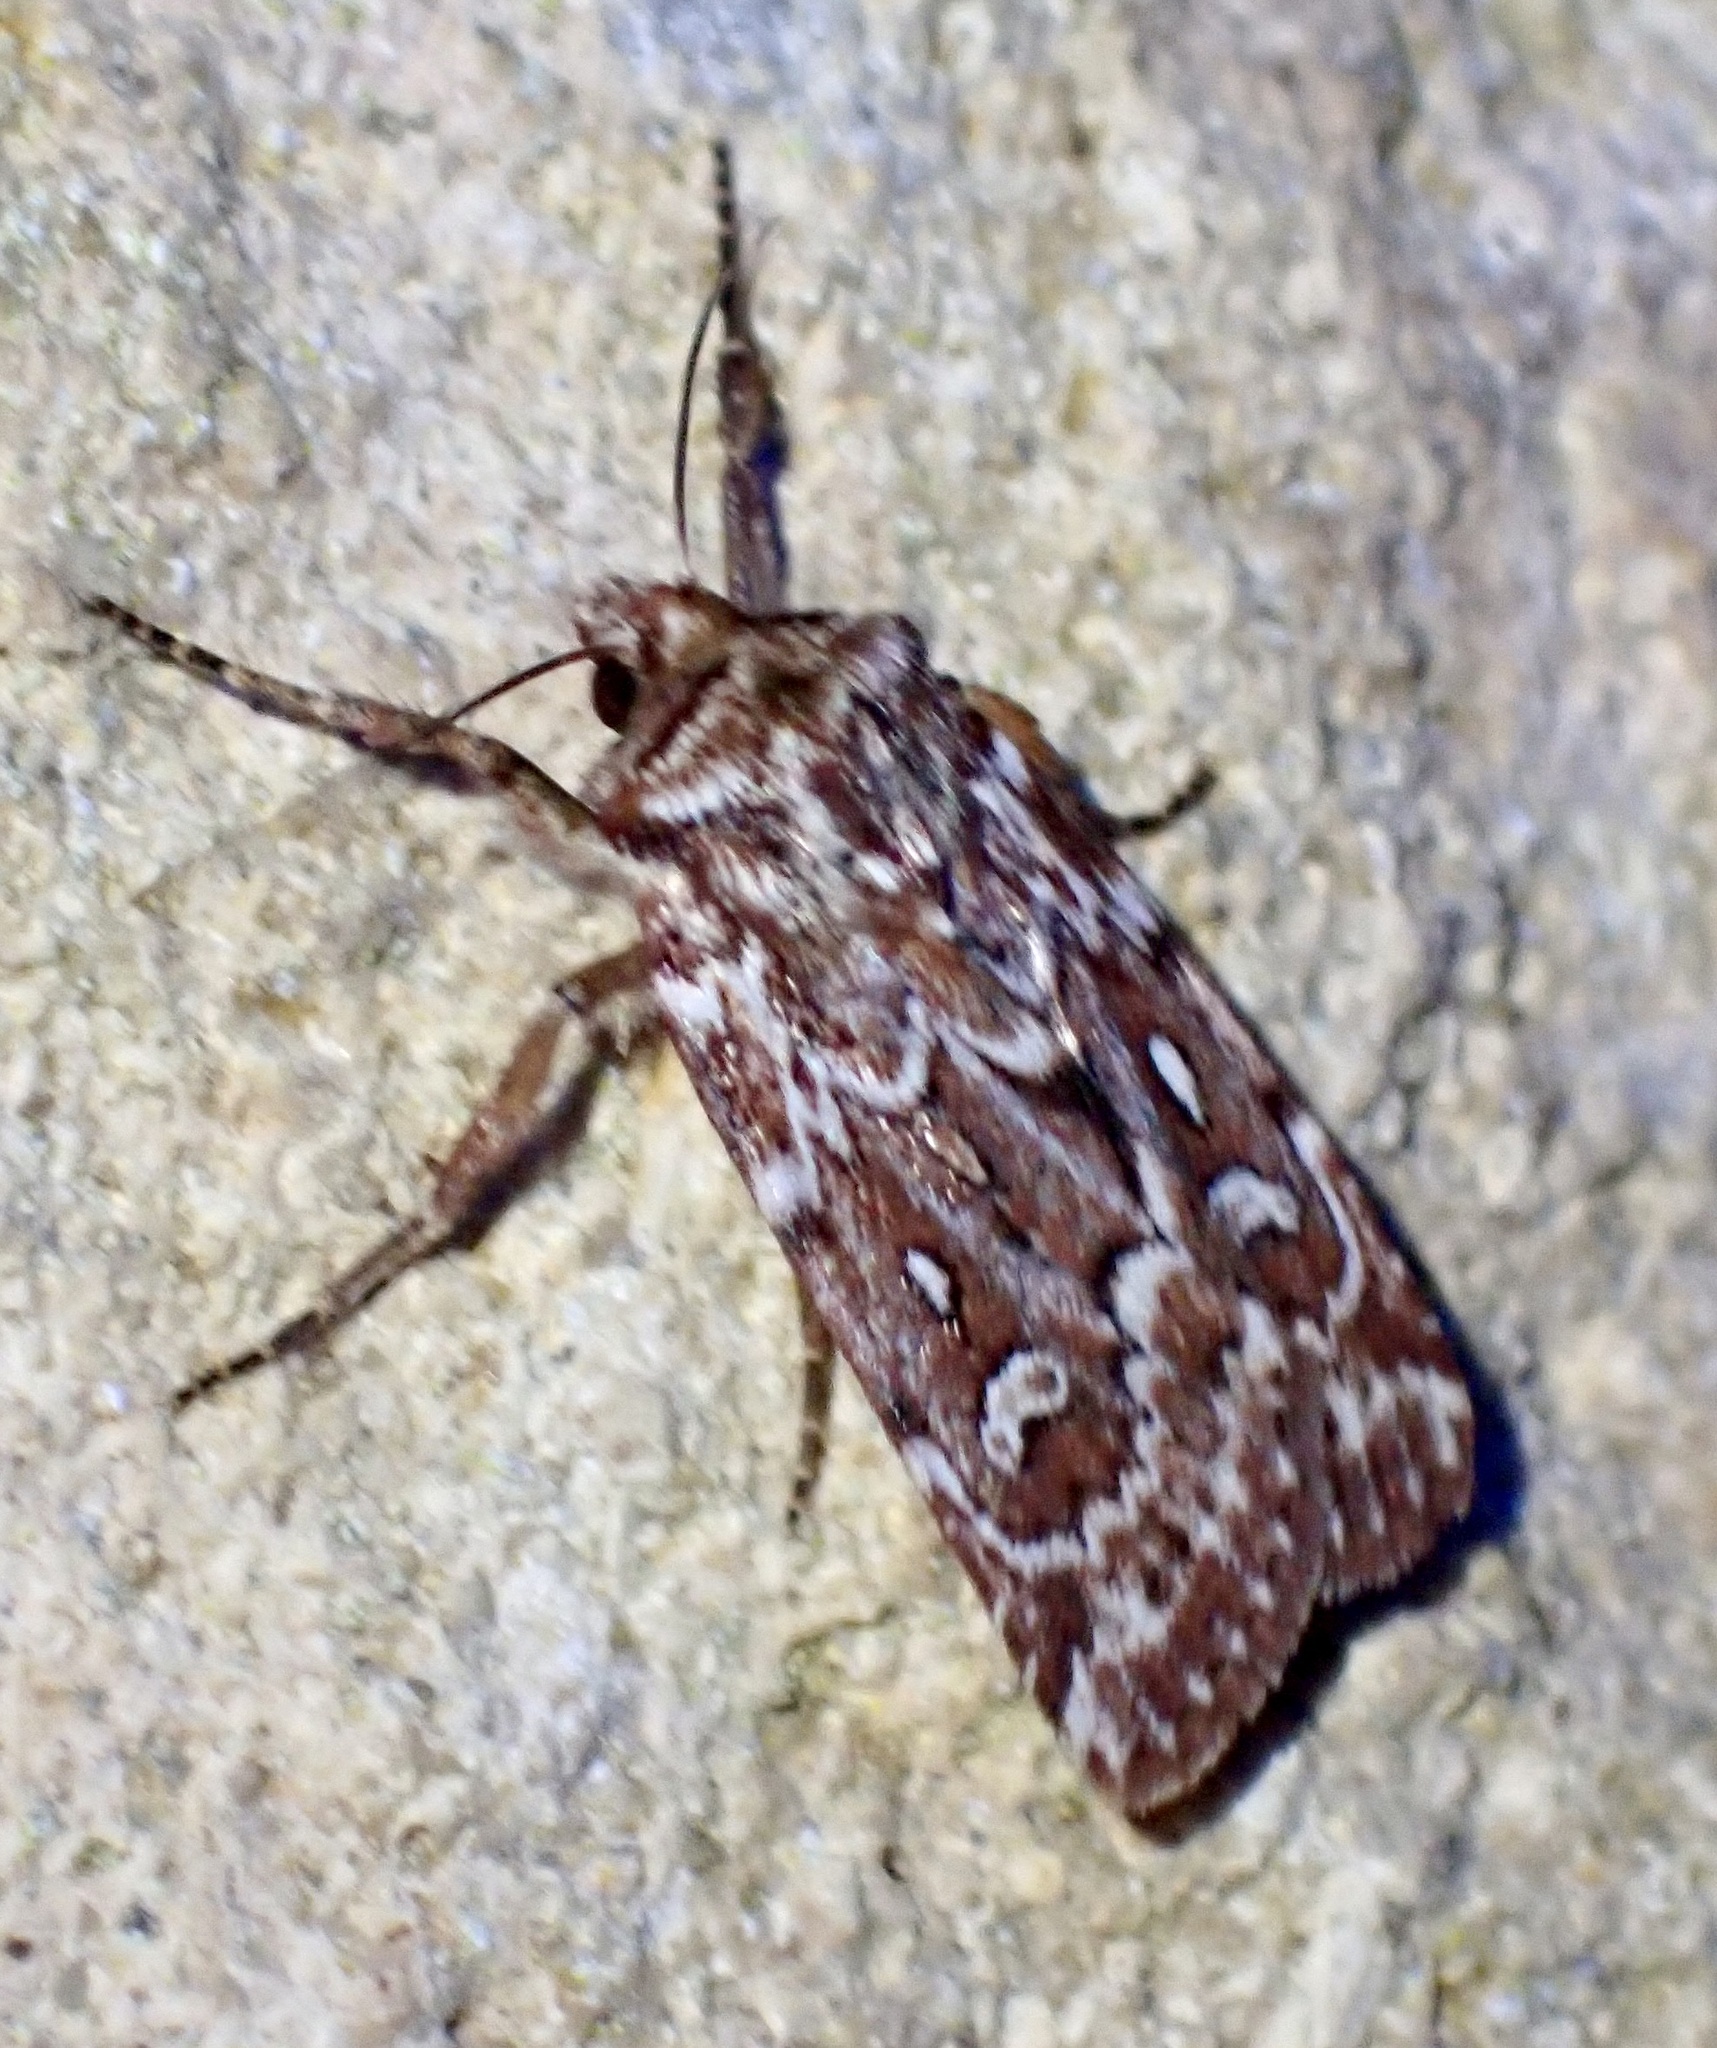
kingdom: Animalia
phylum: Arthropoda
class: Insecta
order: Lepidoptera
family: Noctuidae
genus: Lycophotia
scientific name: Lycophotia porphyrea
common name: True lover's knot
